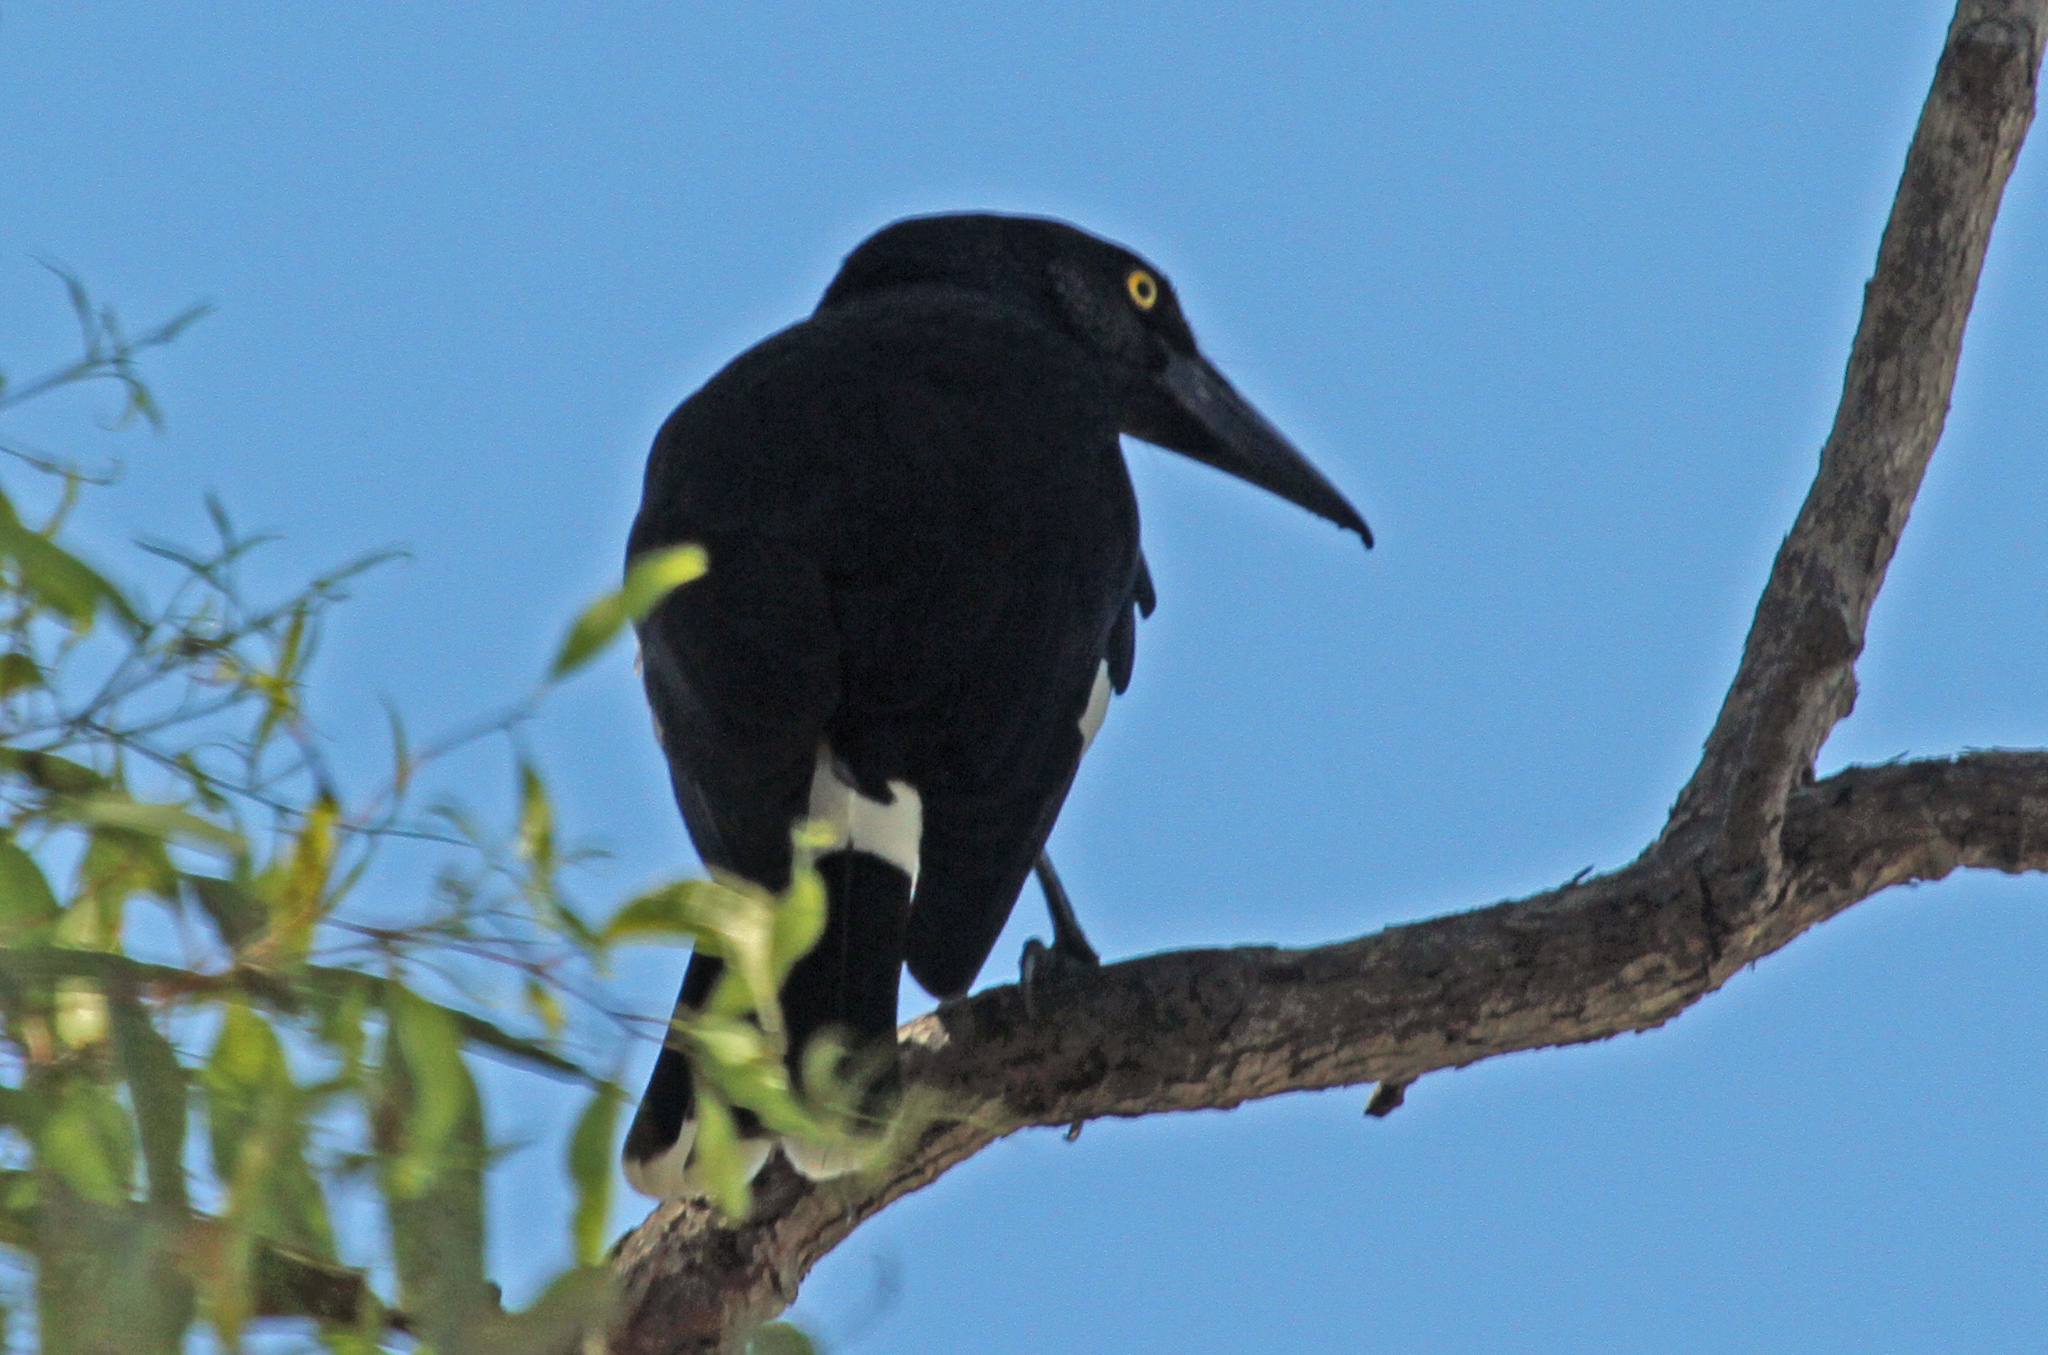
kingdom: Animalia
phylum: Chordata
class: Aves
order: Passeriformes
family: Cracticidae
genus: Strepera
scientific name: Strepera graculina
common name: Pied currawong
